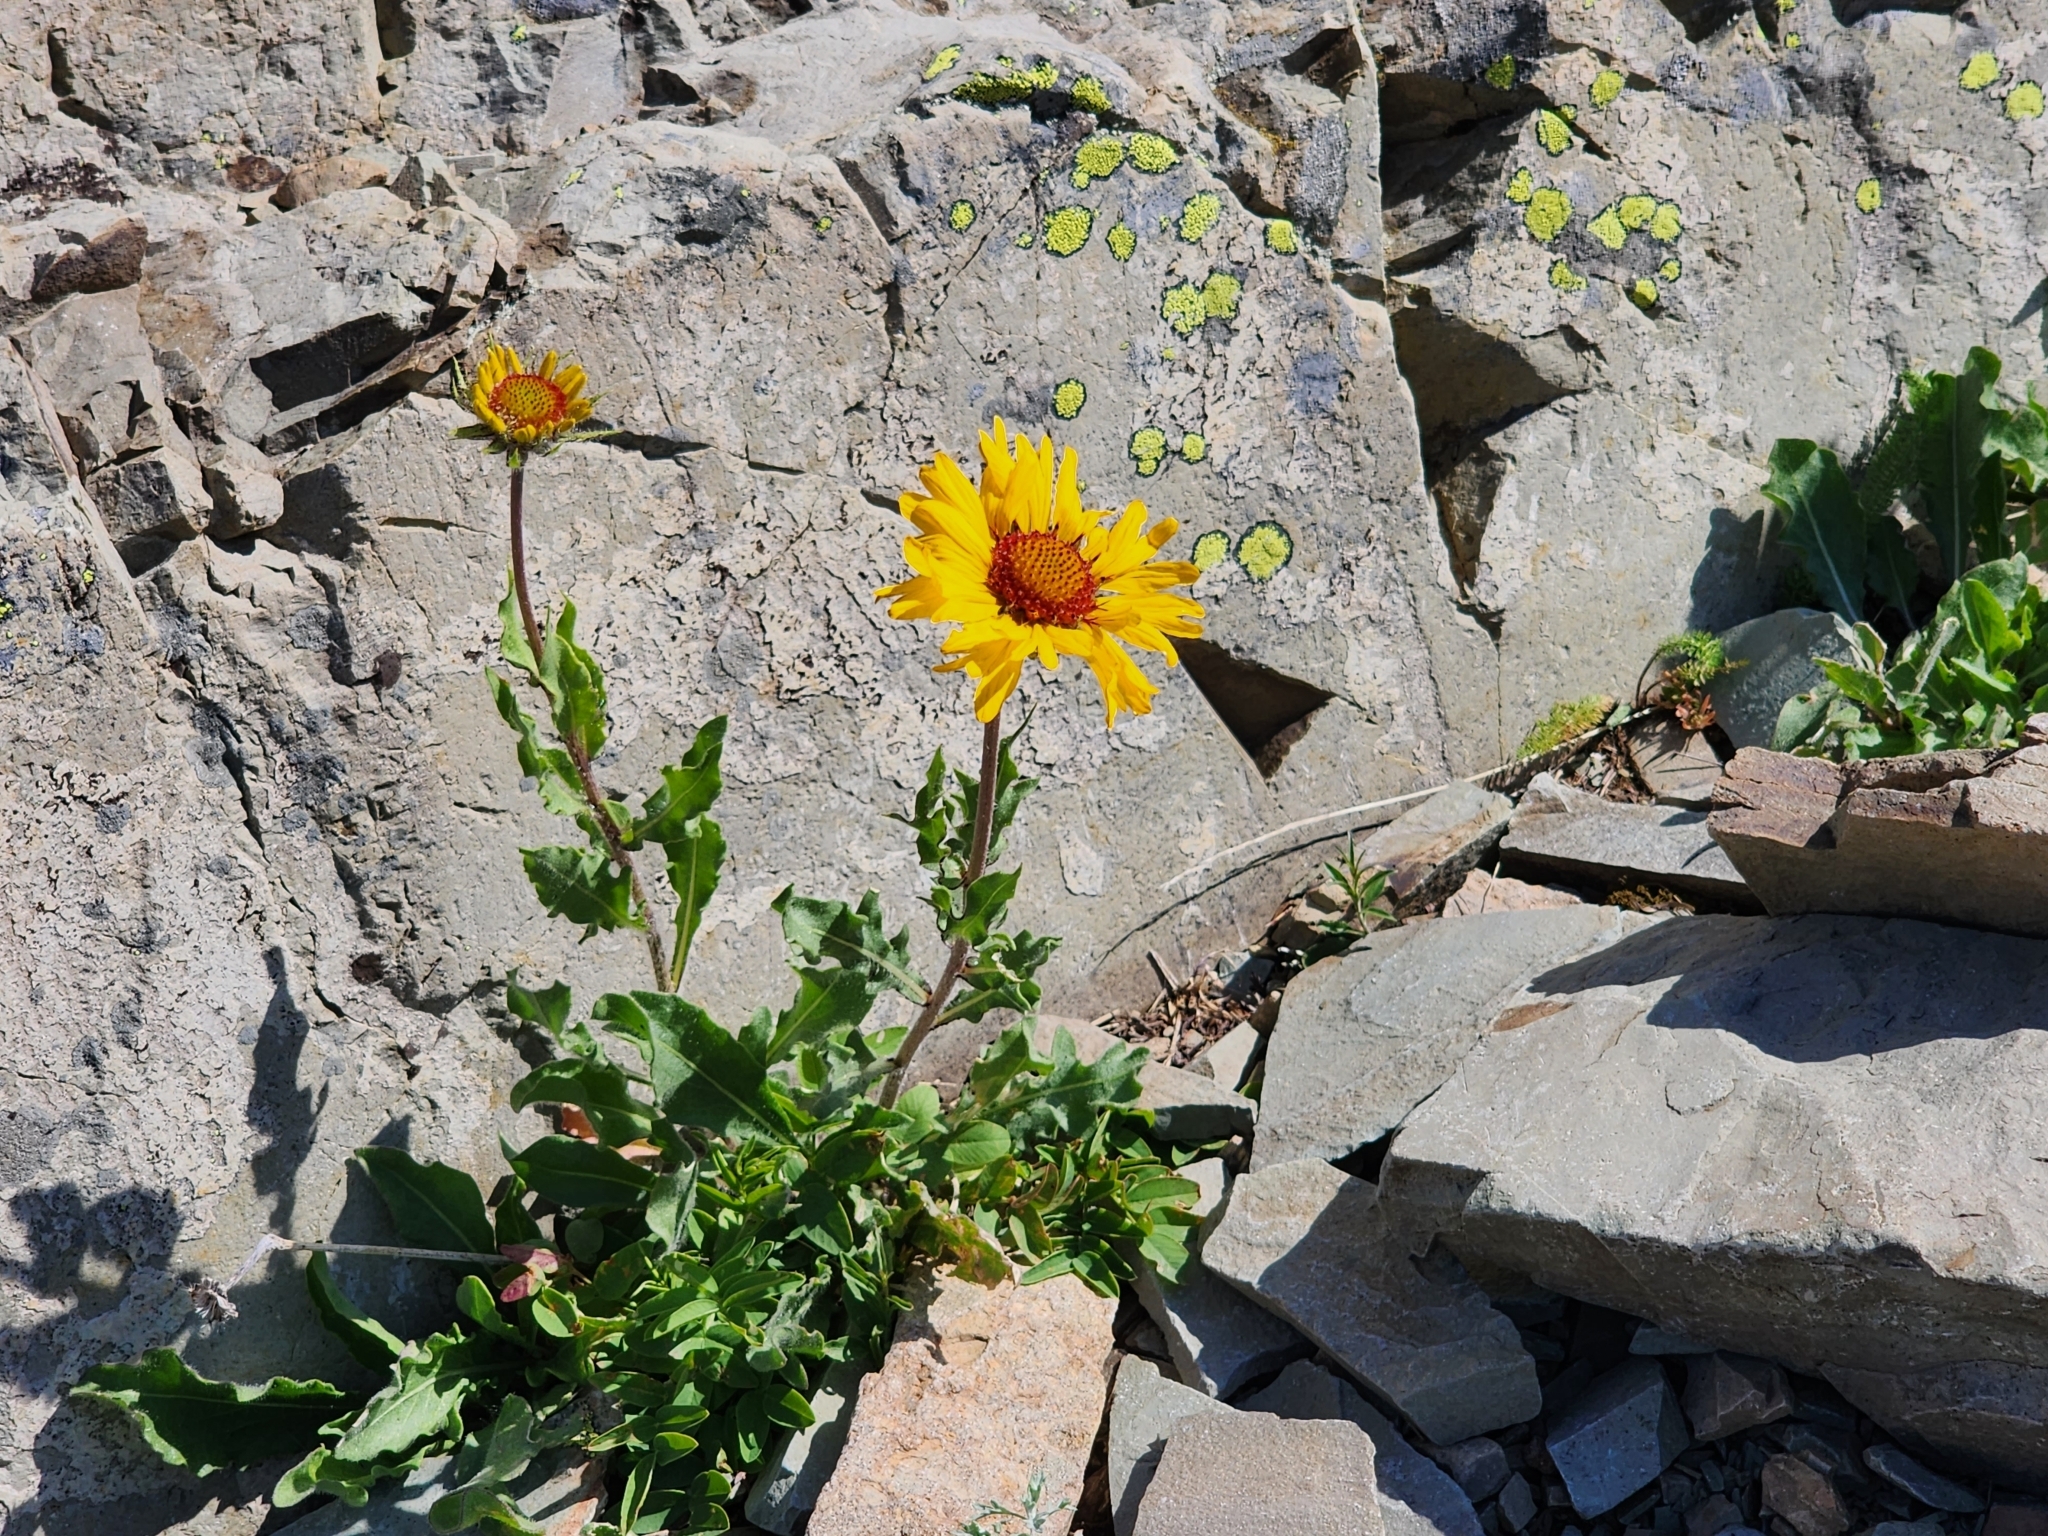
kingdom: Plantae
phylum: Tracheophyta
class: Magnoliopsida
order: Asterales
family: Asteraceae
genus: Gaillardia
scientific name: Gaillardia aristata
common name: Blanket-flower
